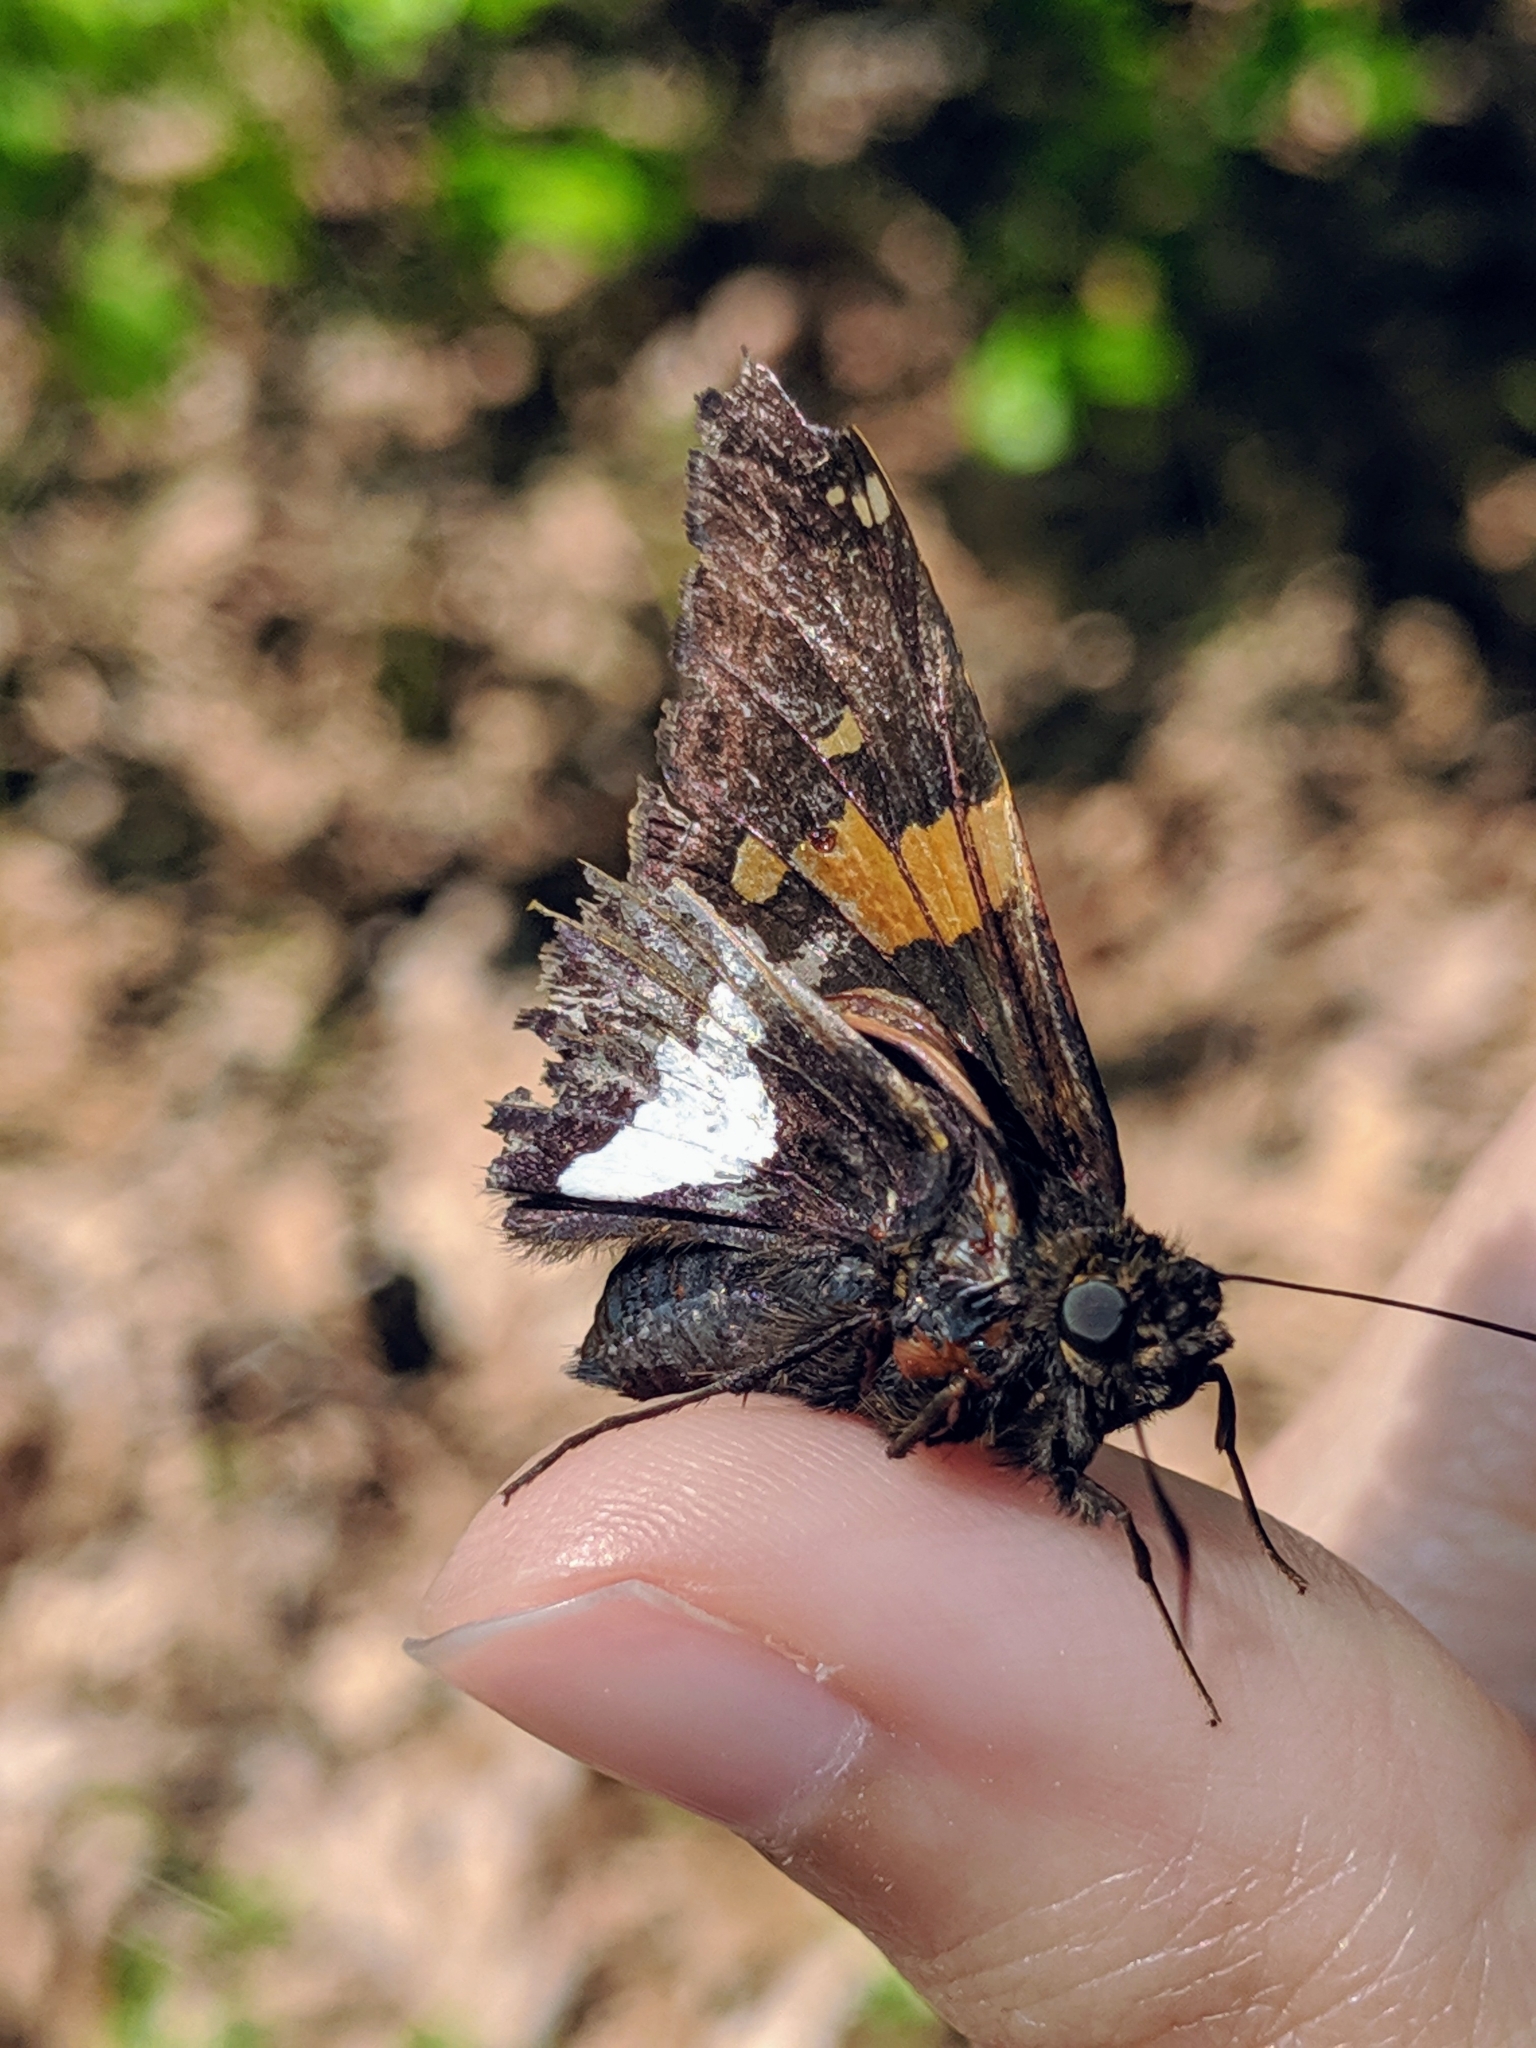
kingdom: Animalia
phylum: Arthropoda
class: Insecta
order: Lepidoptera
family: Hesperiidae
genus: Epargyreus
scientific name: Epargyreus clarus
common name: Silver-spotted skipper
